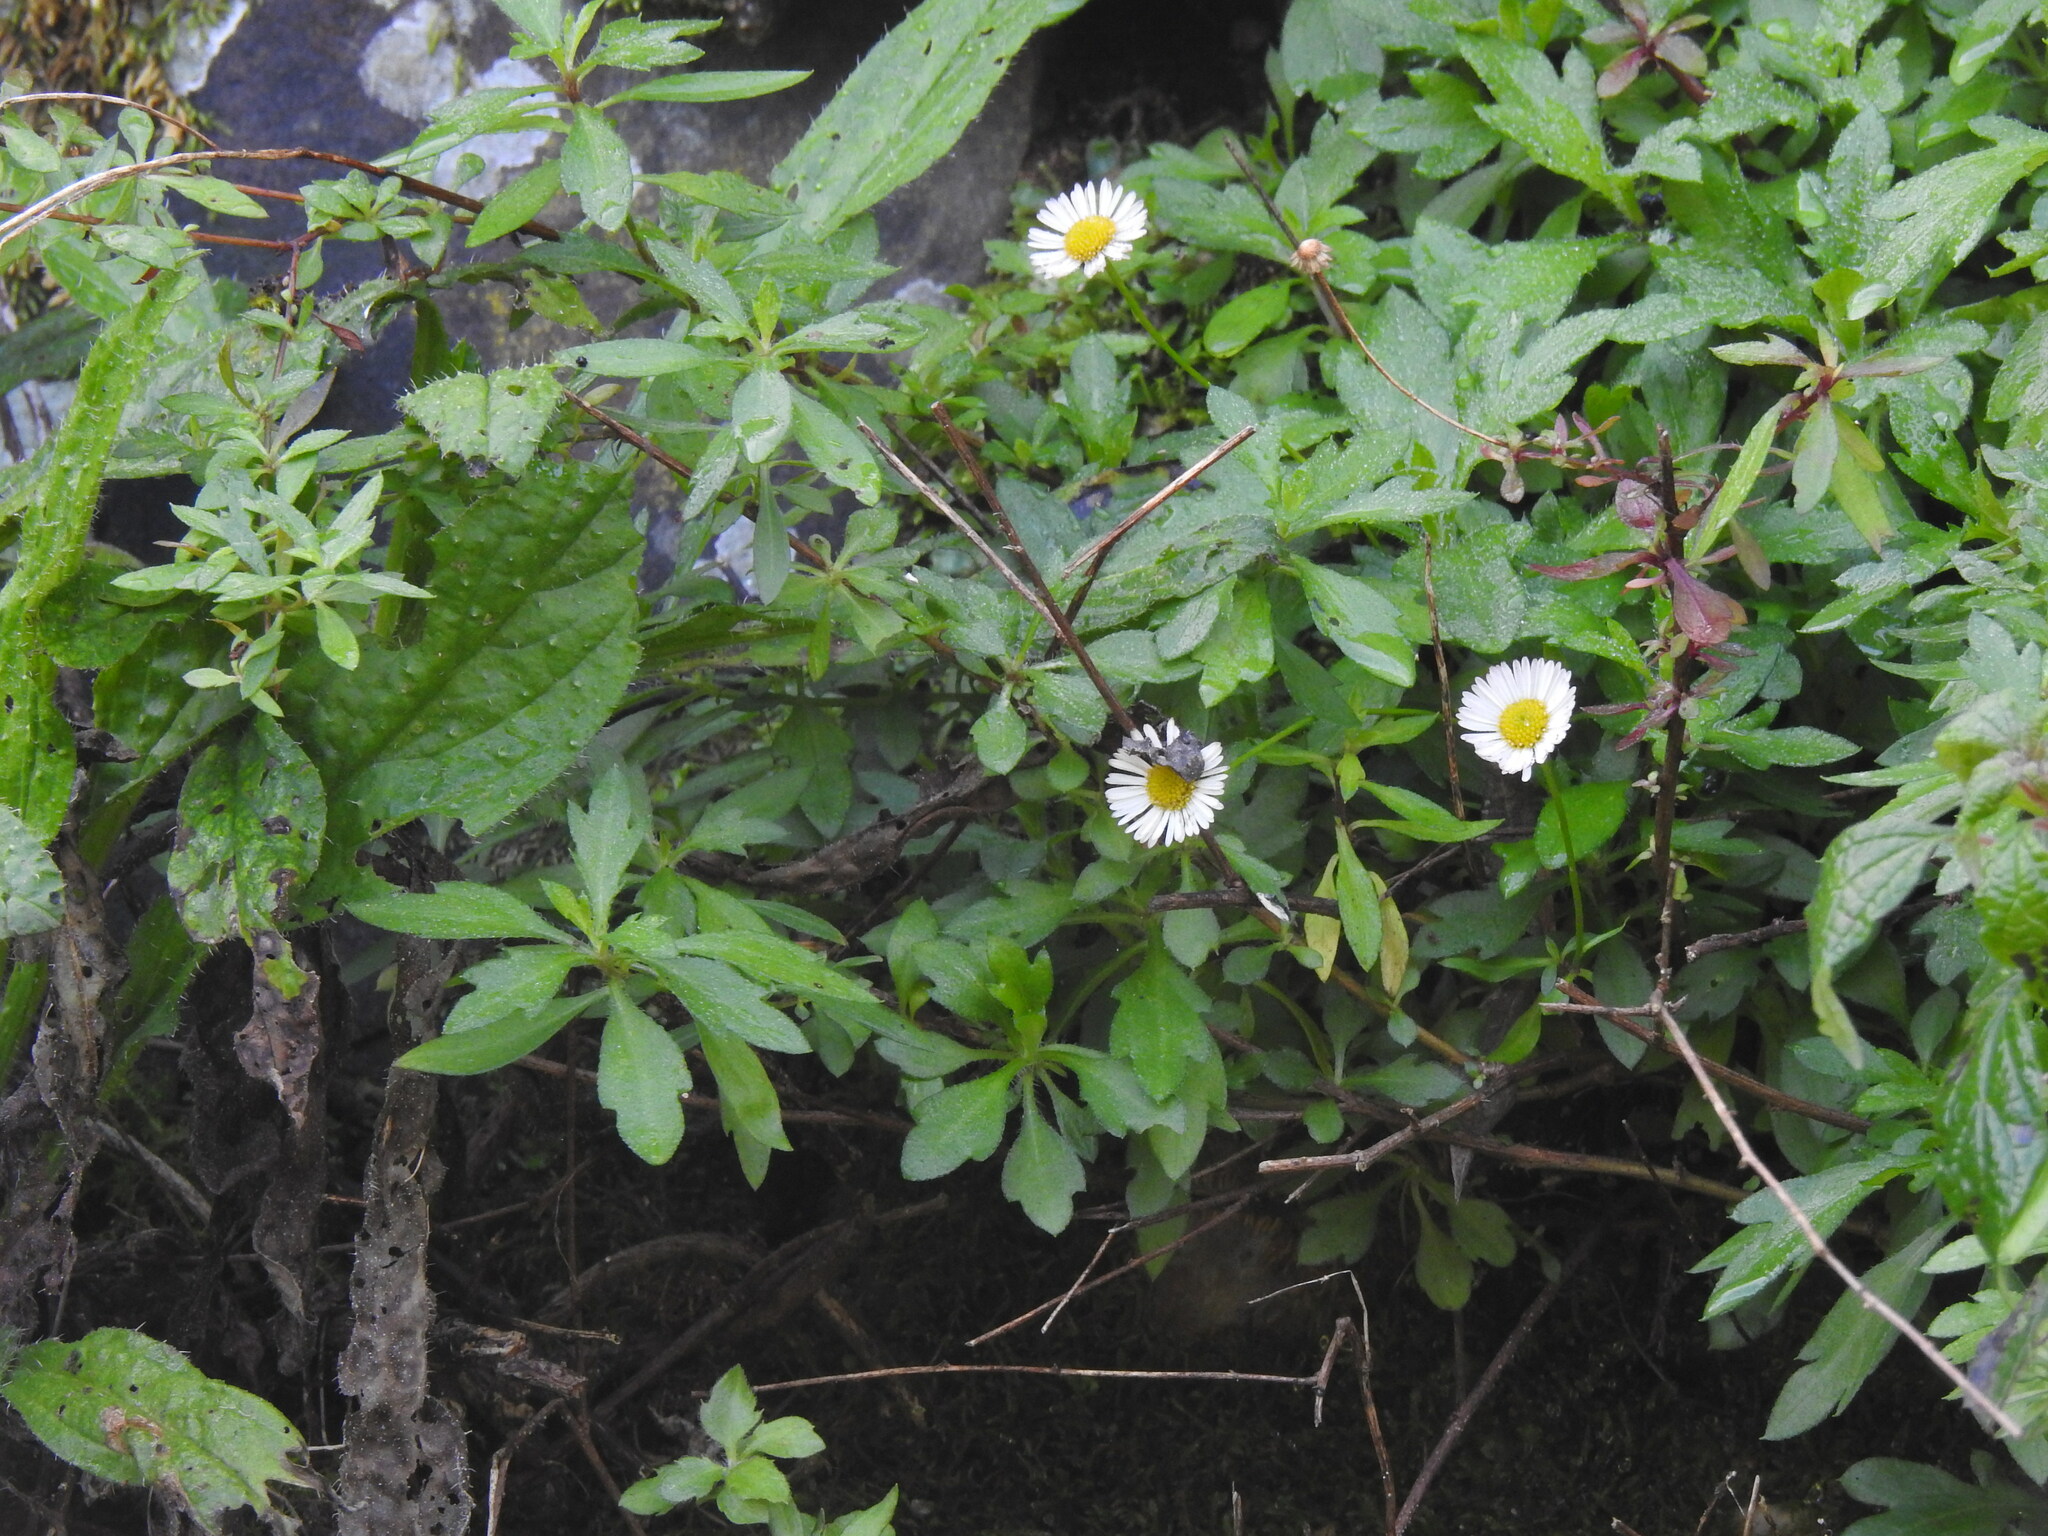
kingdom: Plantae
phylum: Tracheophyta
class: Magnoliopsida
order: Asterales
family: Asteraceae
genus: Erigeron
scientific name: Erigeron karvinskianus
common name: Mexican fleabane
